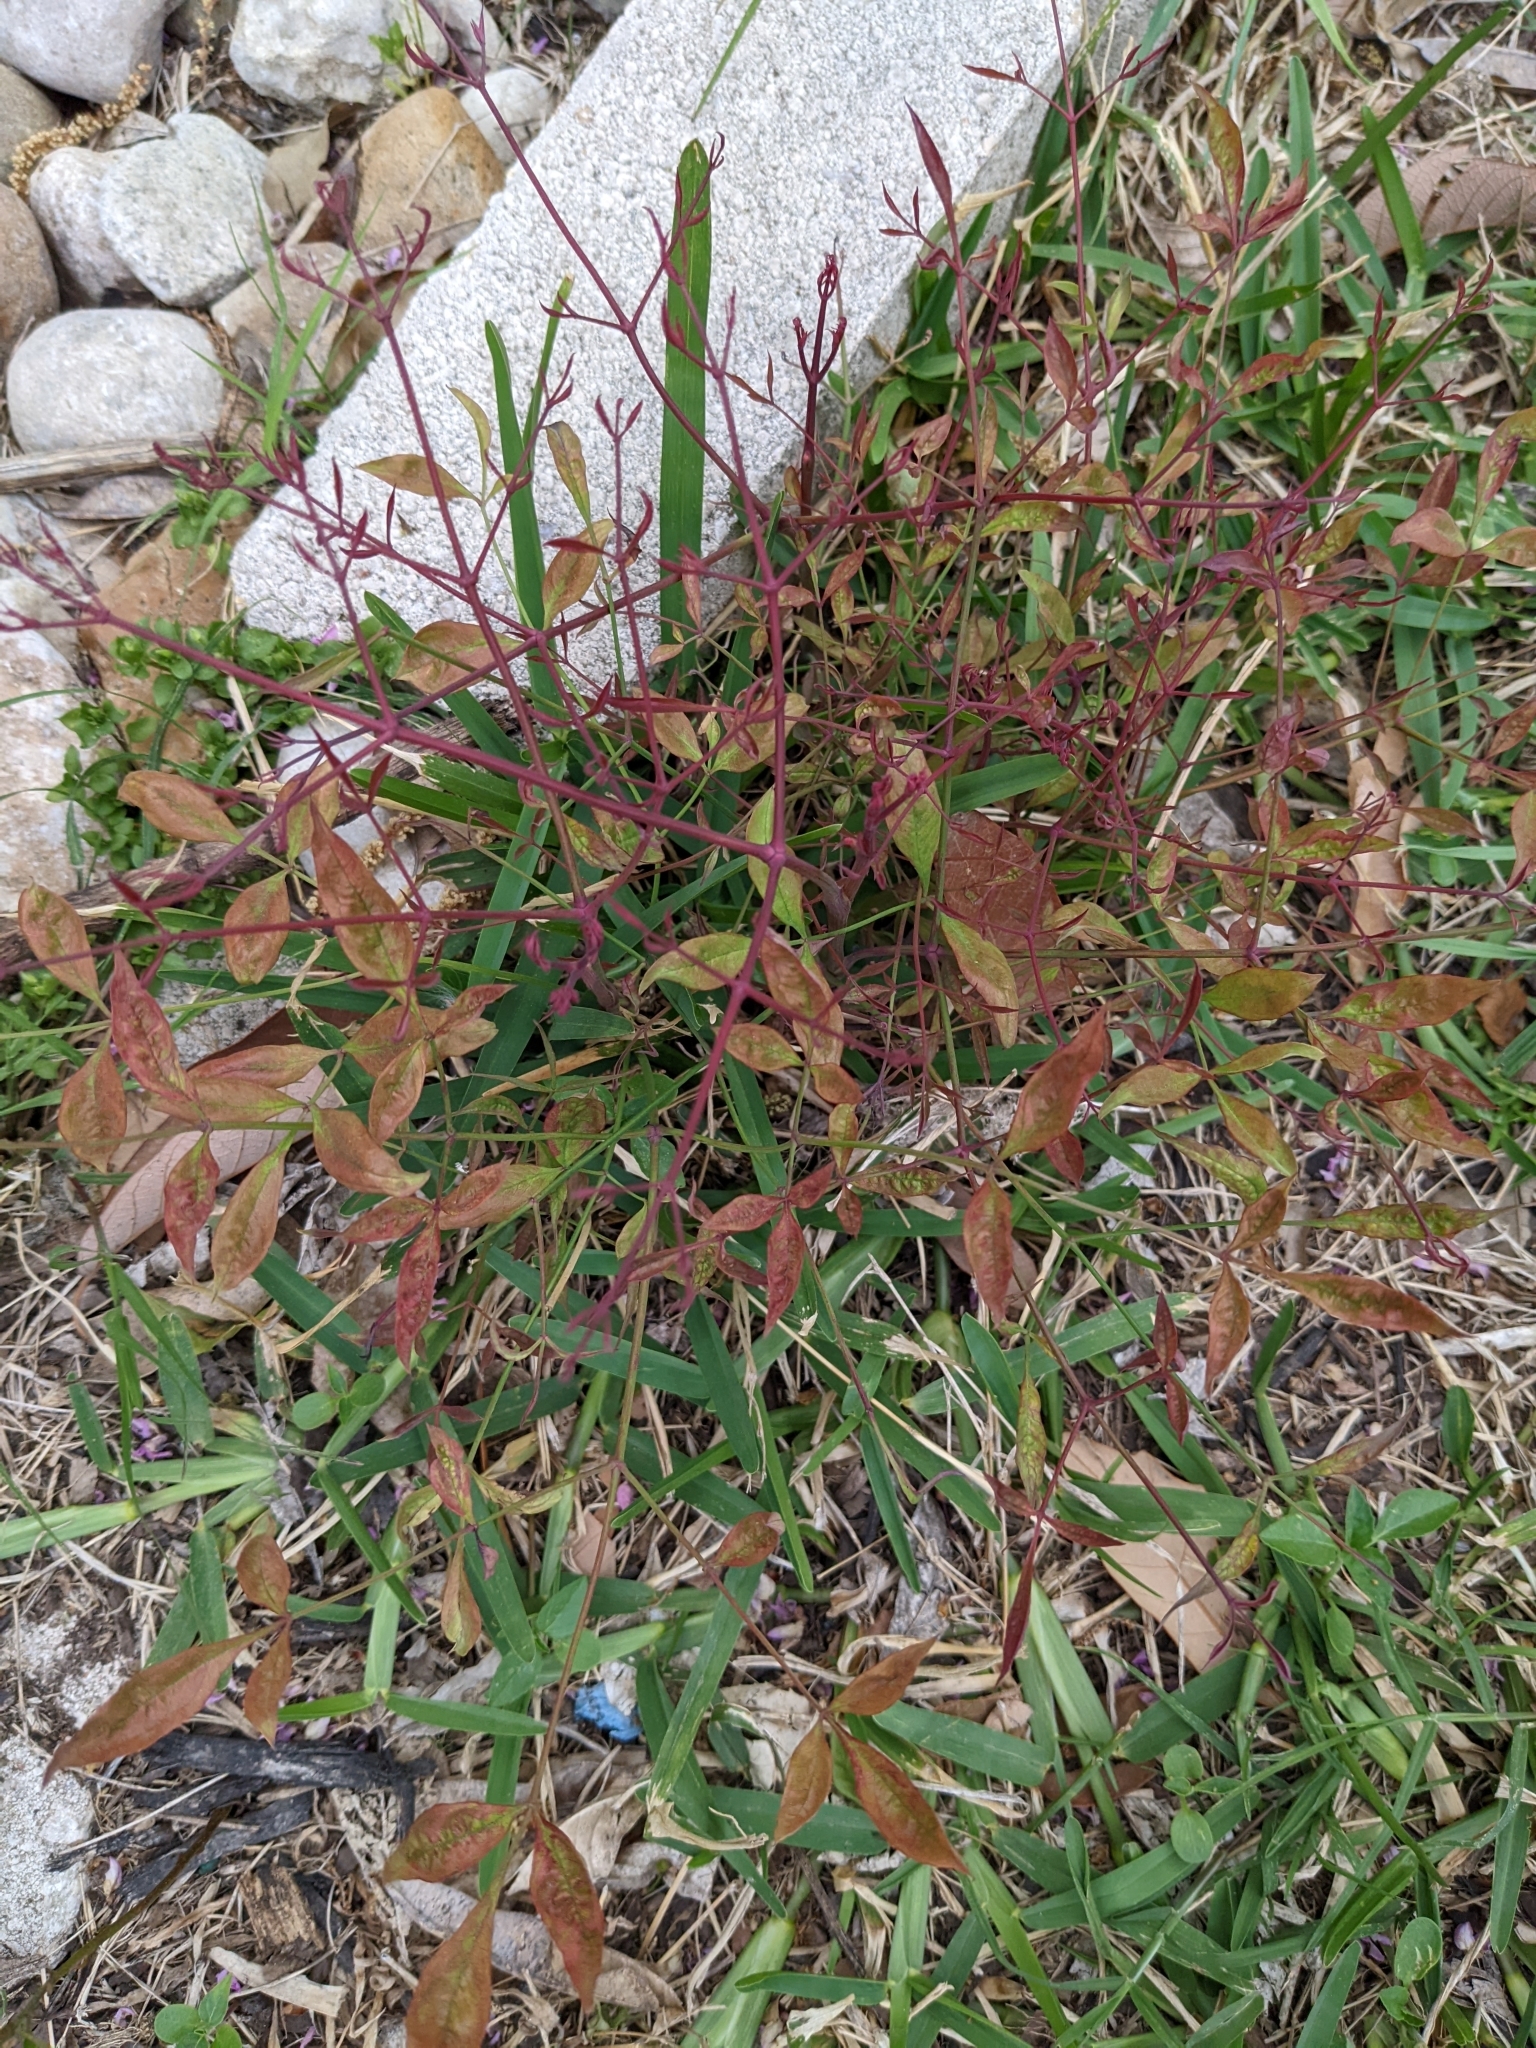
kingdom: Plantae
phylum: Tracheophyta
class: Magnoliopsida
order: Ranunculales
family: Berberidaceae
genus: Nandina
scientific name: Nandina domestica
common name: Sacred bamboo
